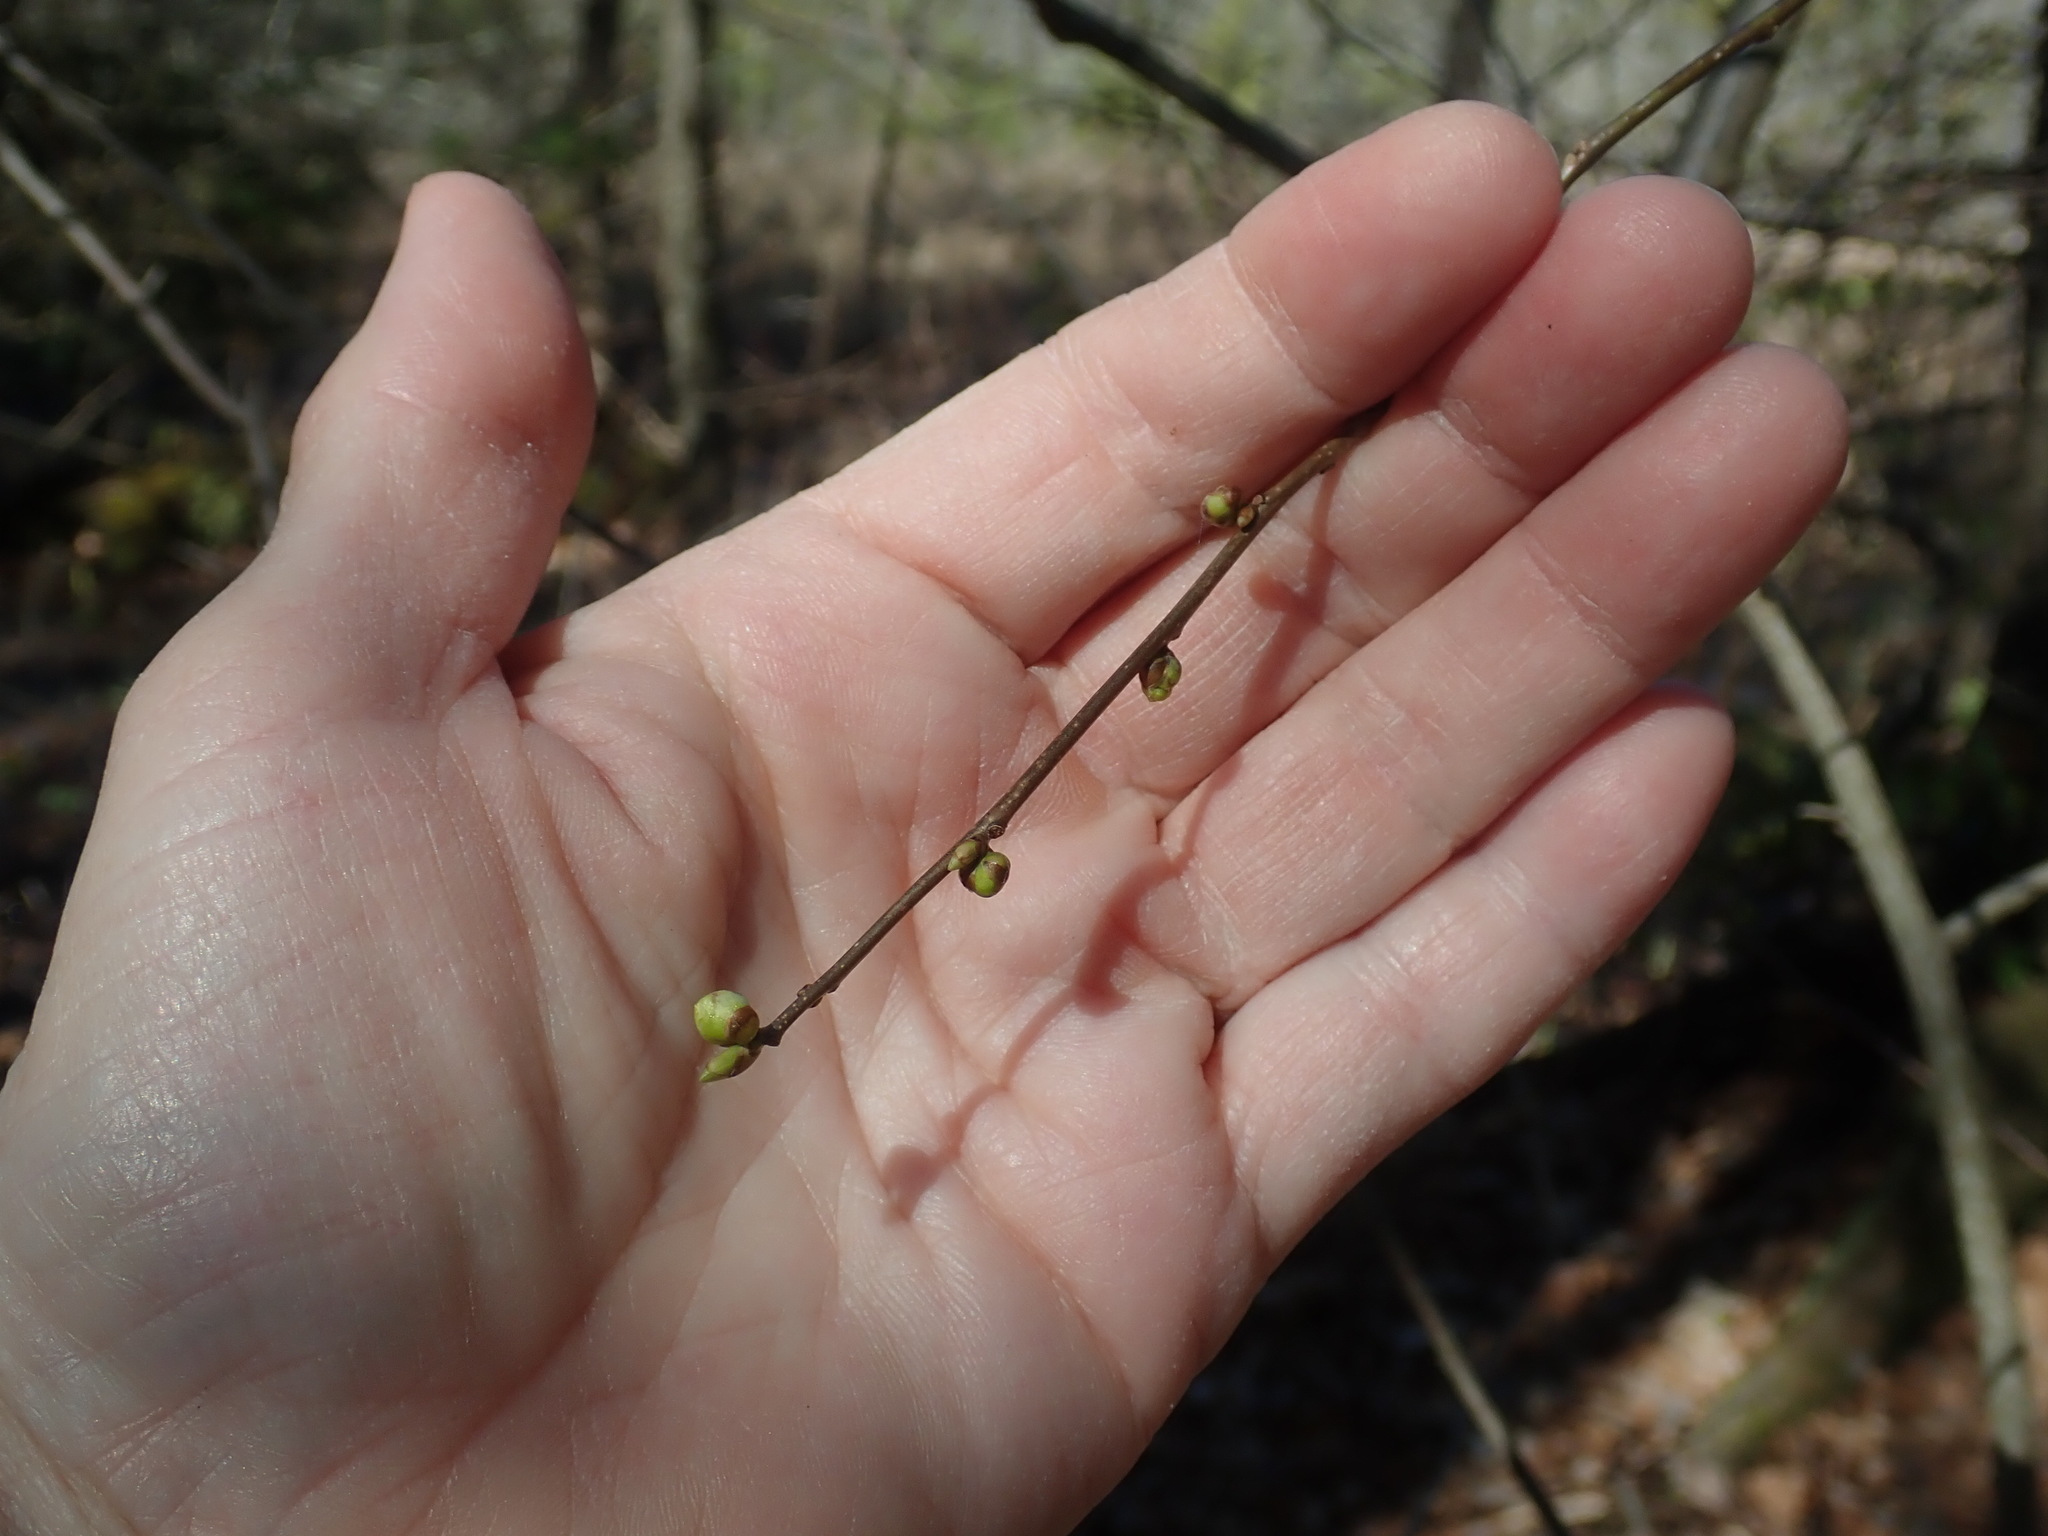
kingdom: Plantae
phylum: Tracheophyta
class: Magnoliopsida
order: Laurales
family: Lauraceae
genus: Lindera
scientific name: Lindera benzoin
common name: Spicebush
